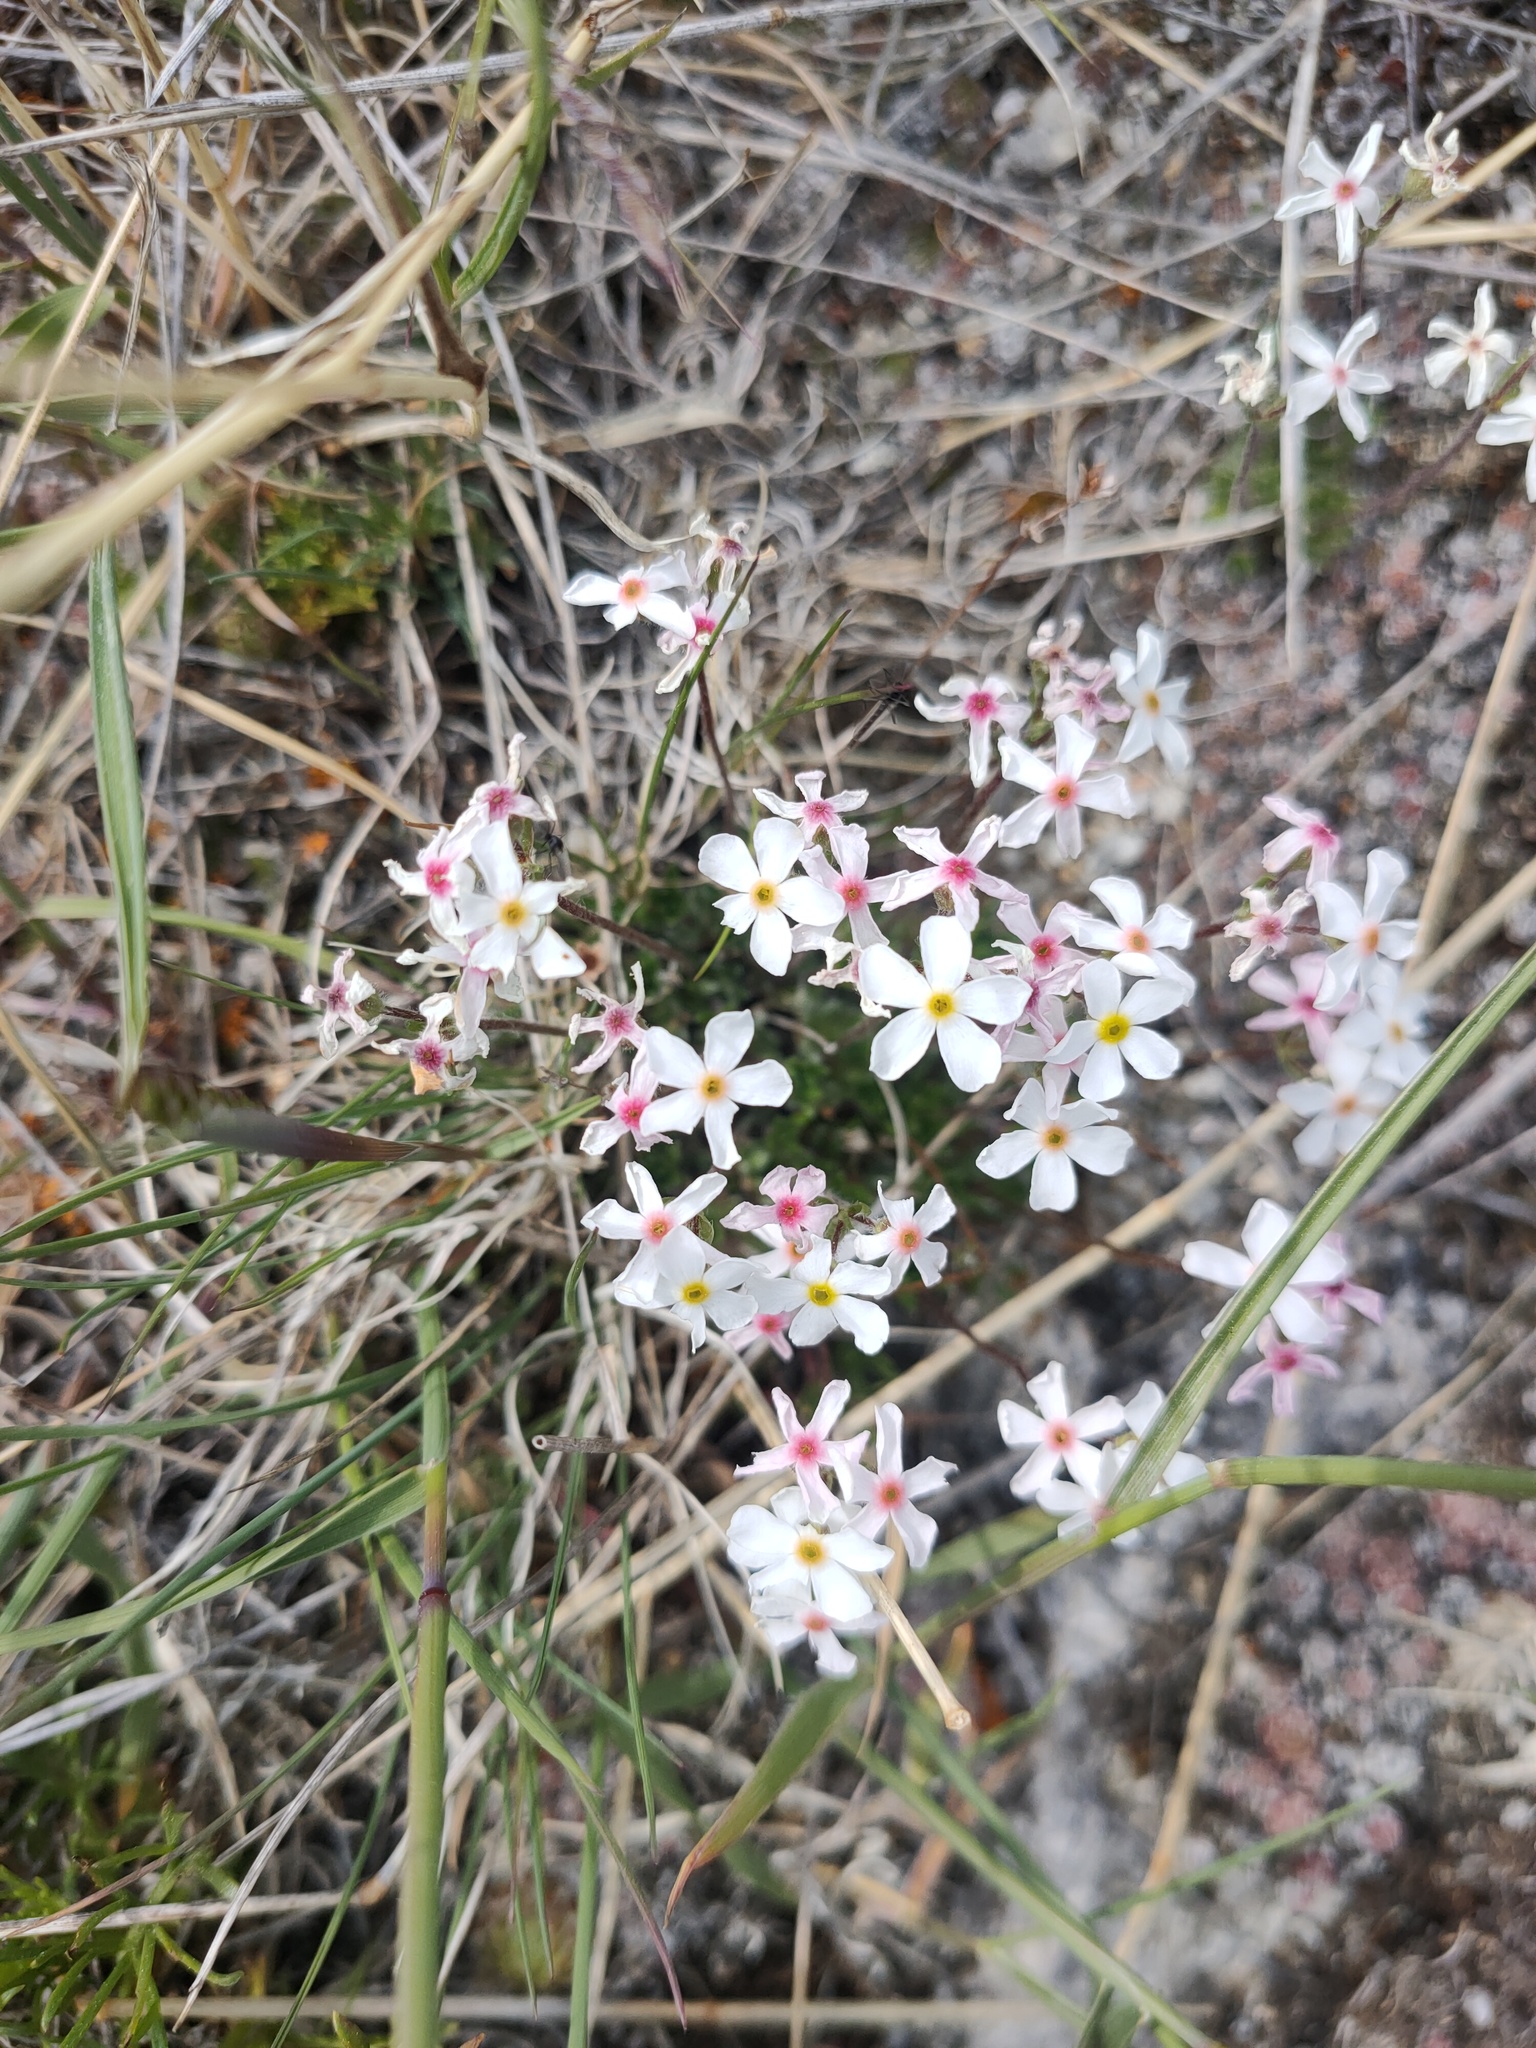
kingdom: Plantae
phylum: Tracheophyta
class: Magnoliopsida
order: Ericales
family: Primulaceae
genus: Androsace
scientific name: Androsace incana
